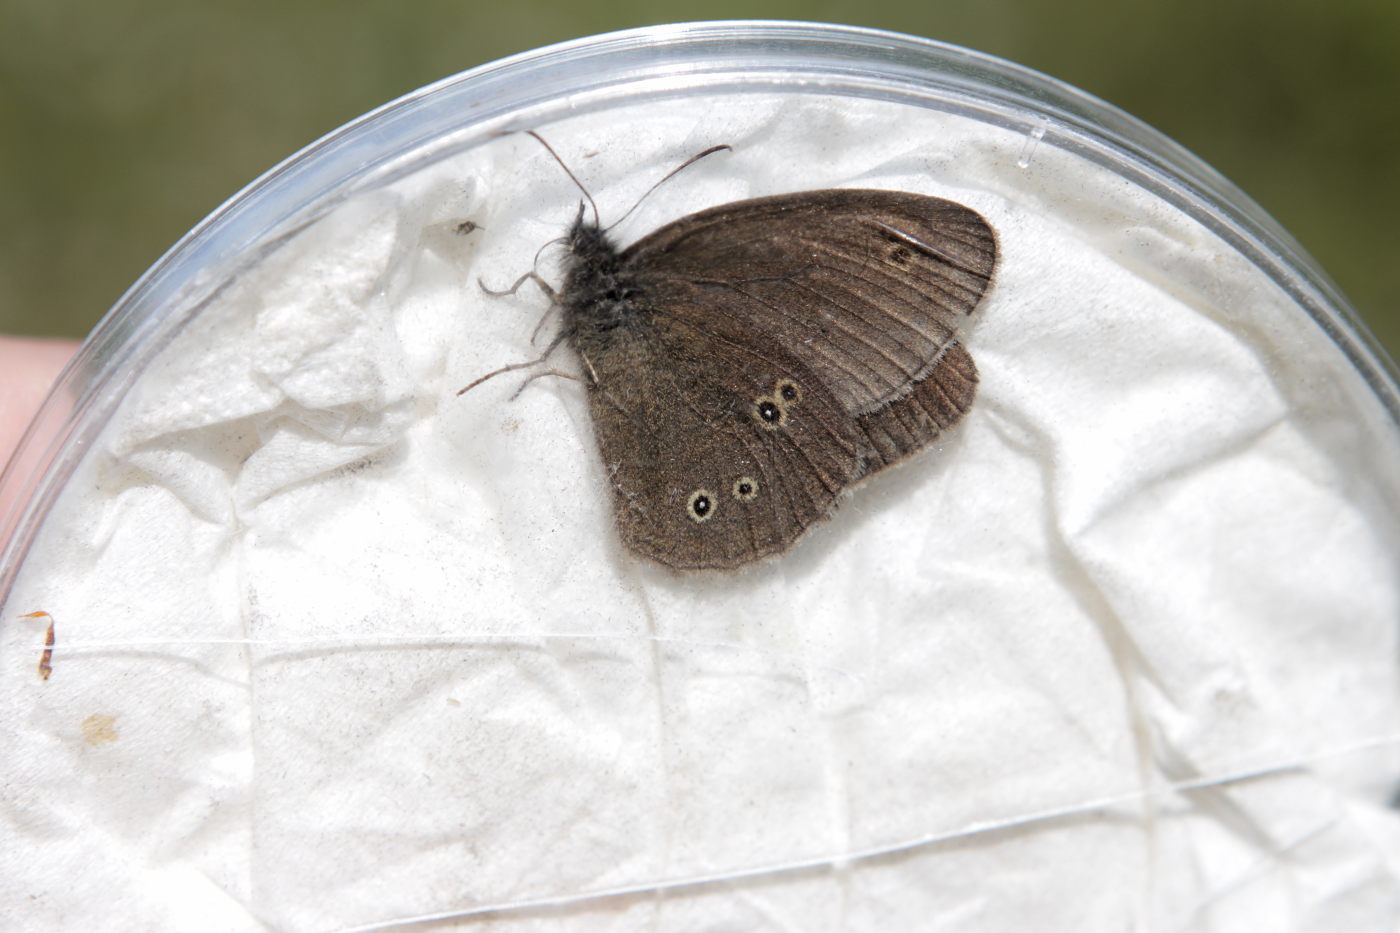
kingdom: Animalia
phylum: Arthropoda
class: Insecta
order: Lepidoptera
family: Nymphalidae
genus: Aphantopus
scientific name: Aphantopus hyperantus
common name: Ringlet
